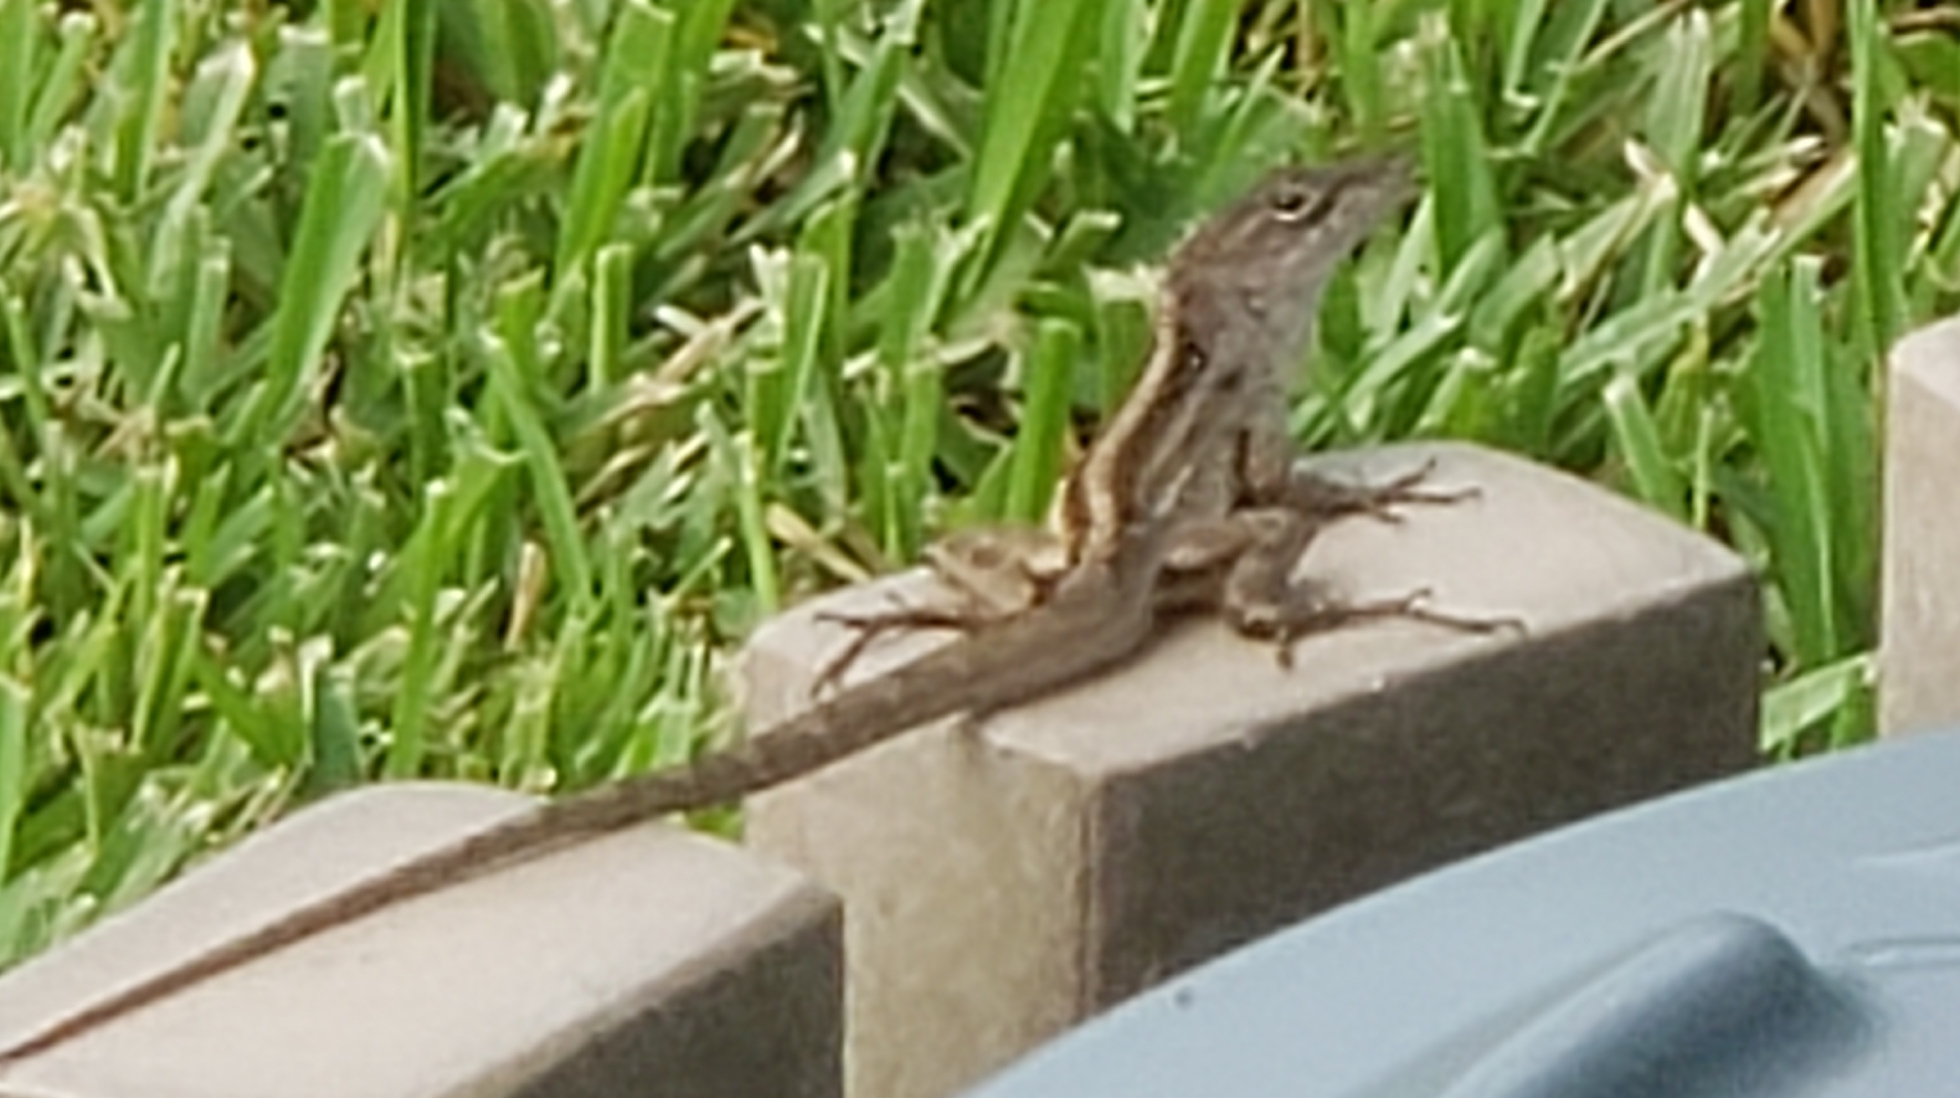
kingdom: Animalia
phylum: Chordata
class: Squamata
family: Dactyloidae
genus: Anolis
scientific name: Anolis sagrei
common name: Brown anole
